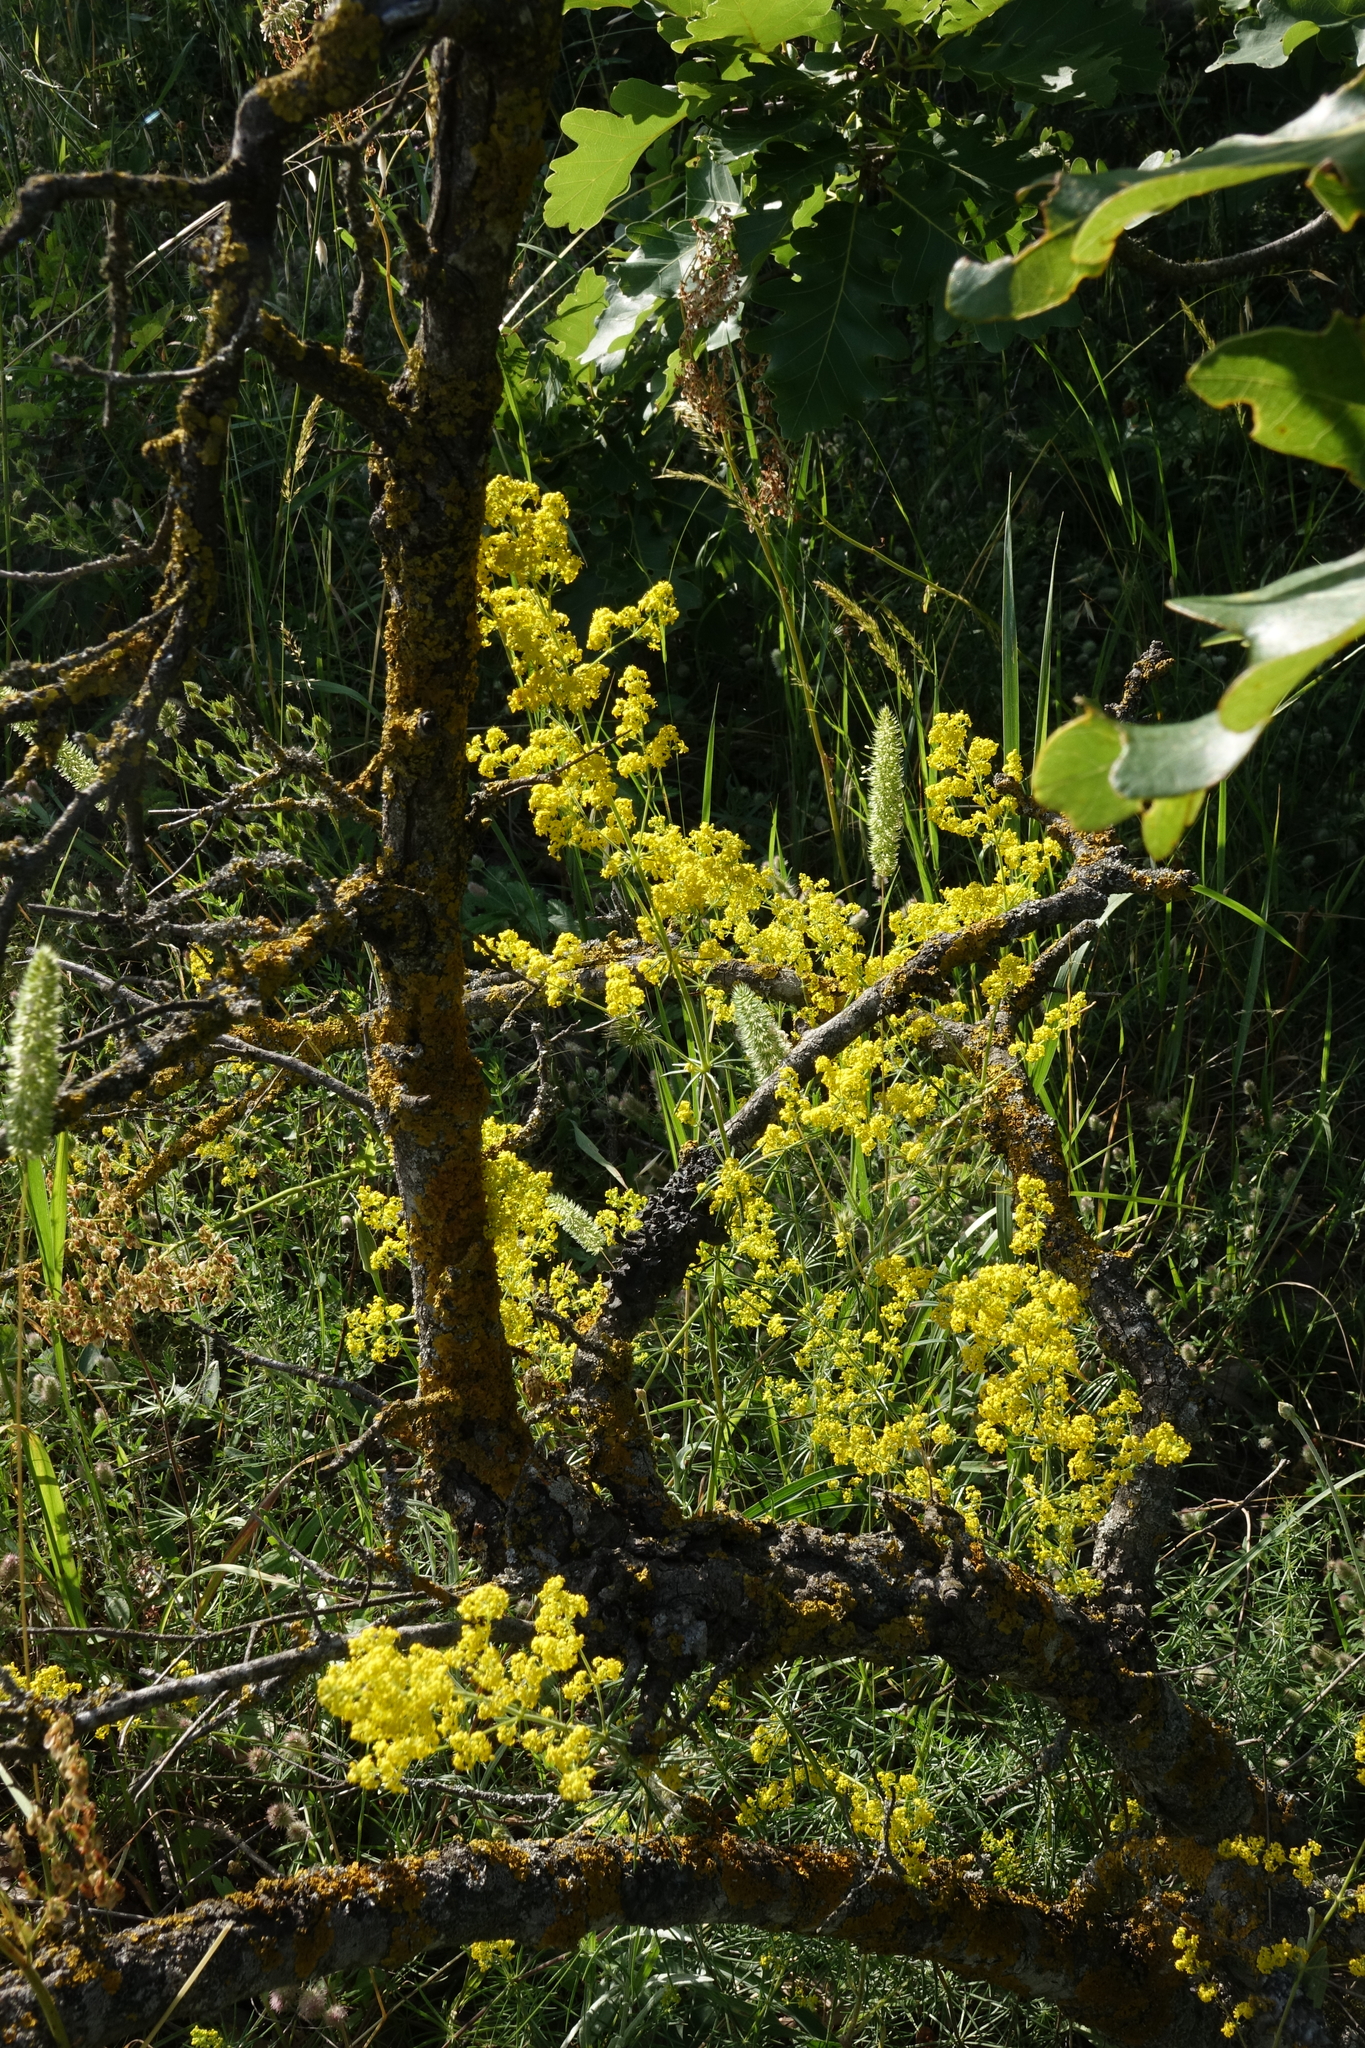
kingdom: Plantae
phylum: Tracheophyta
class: Magnoliopsida
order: Gentianales
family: Rubiaceae
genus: Galium
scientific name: Galium verum
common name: Lady's bedstraw
